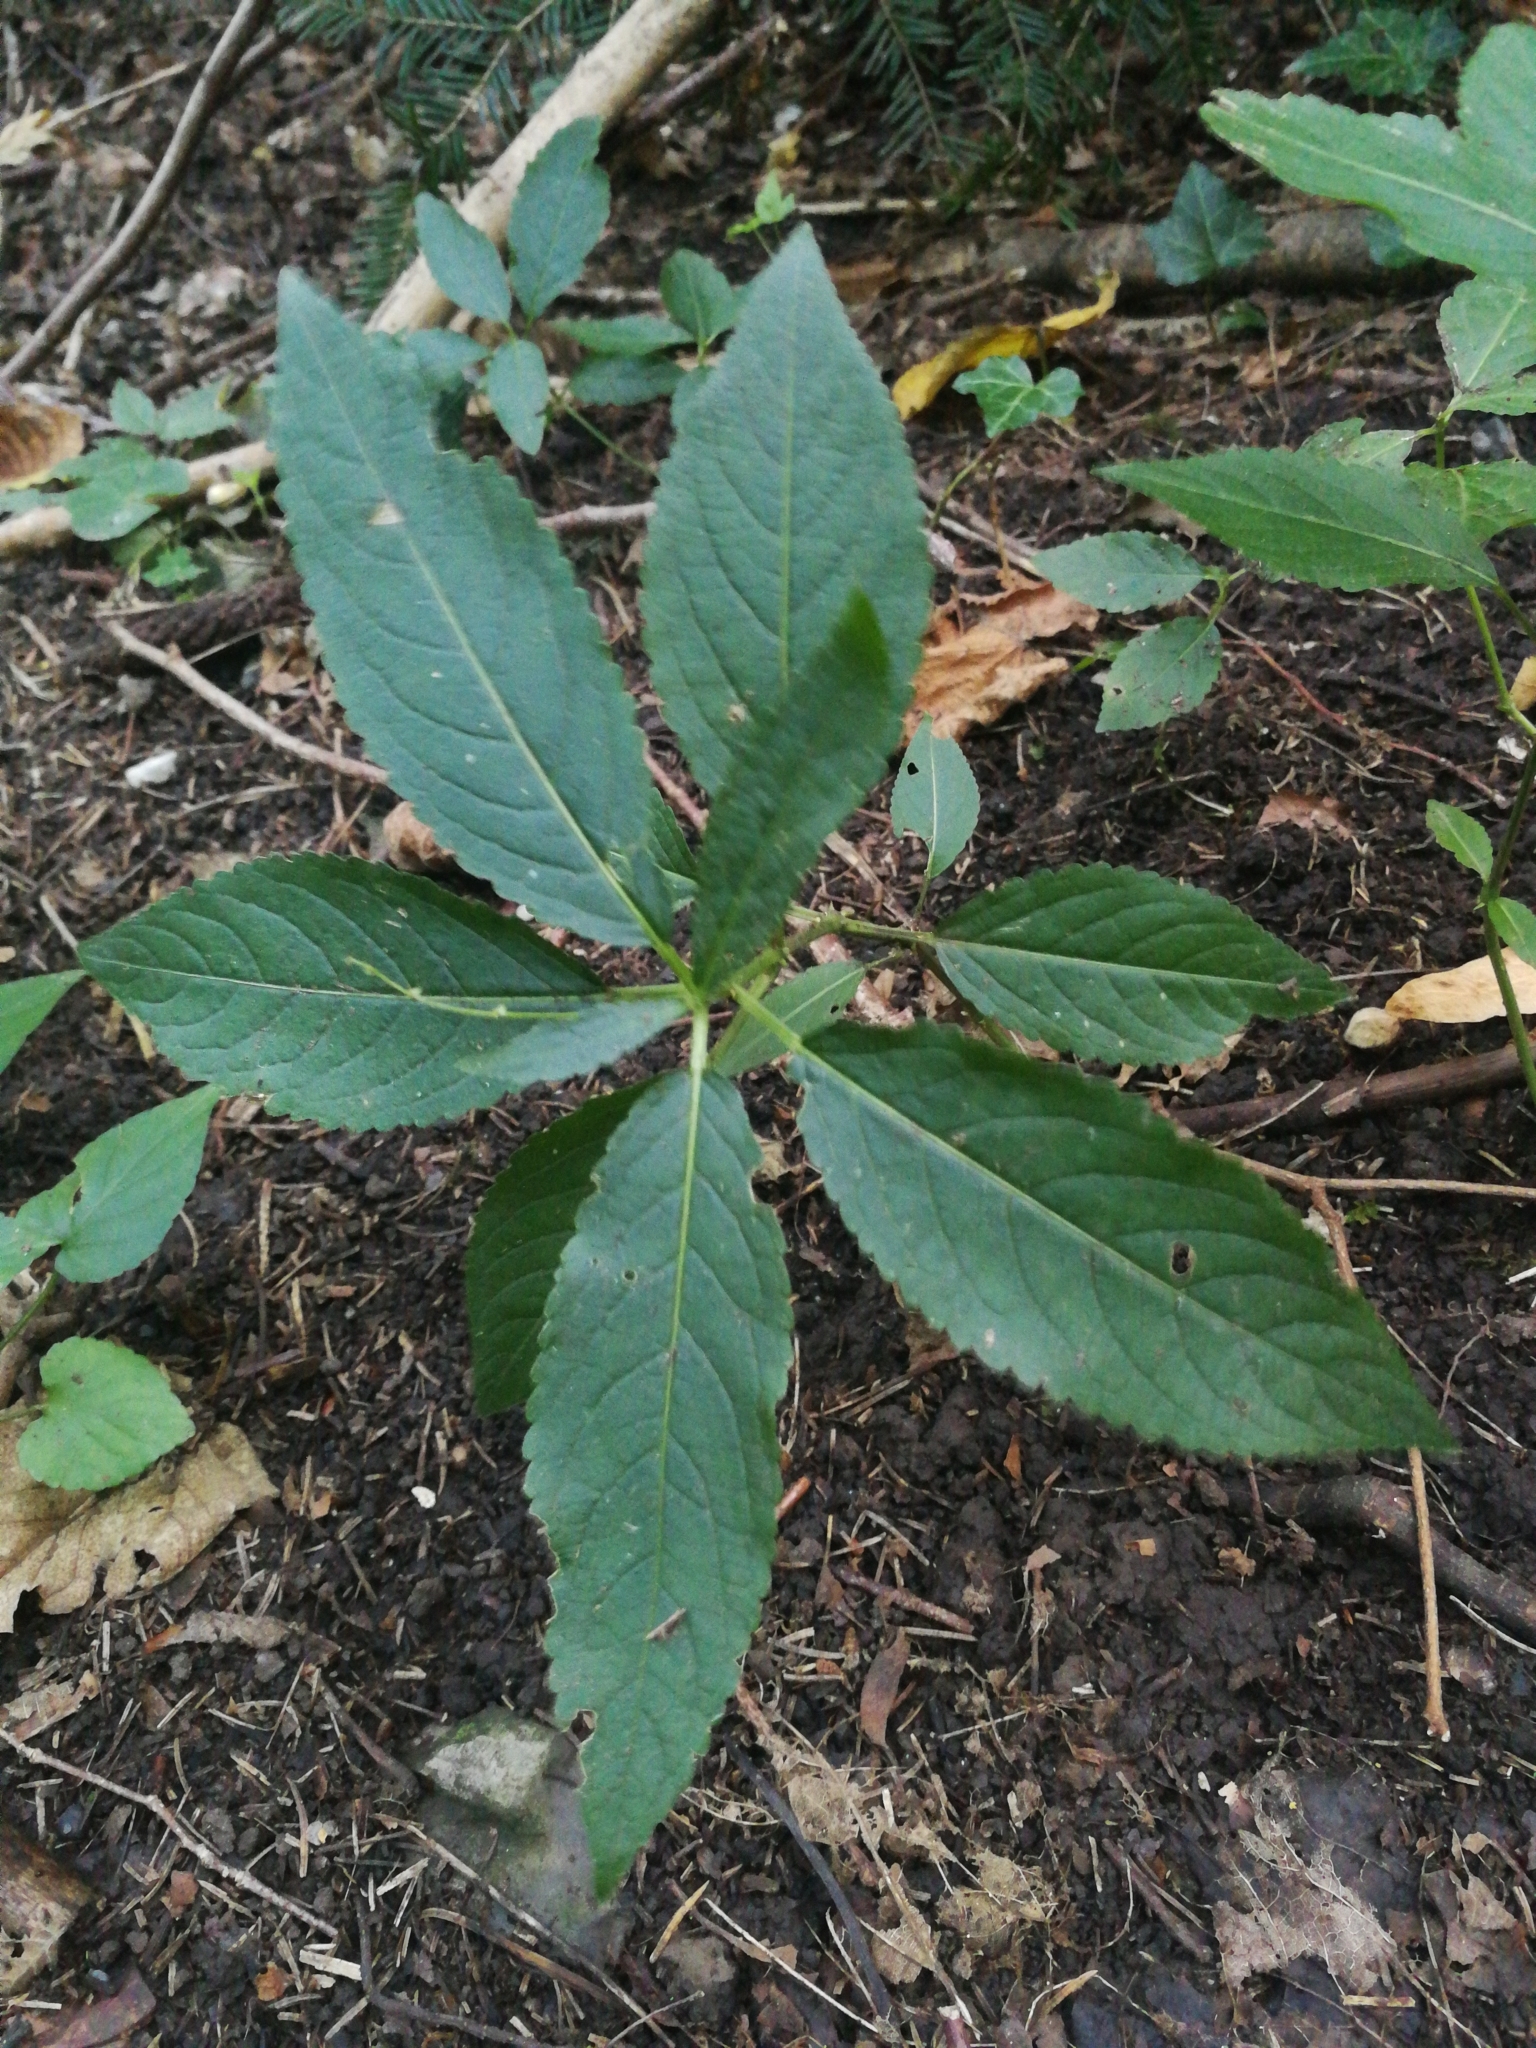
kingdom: Plantae
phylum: Tracheophyta
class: Magnoliopsida
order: Malpighiales
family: Euphorbiaceae
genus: Mercurialis
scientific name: Mercurialis perennis
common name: Dog mercury
